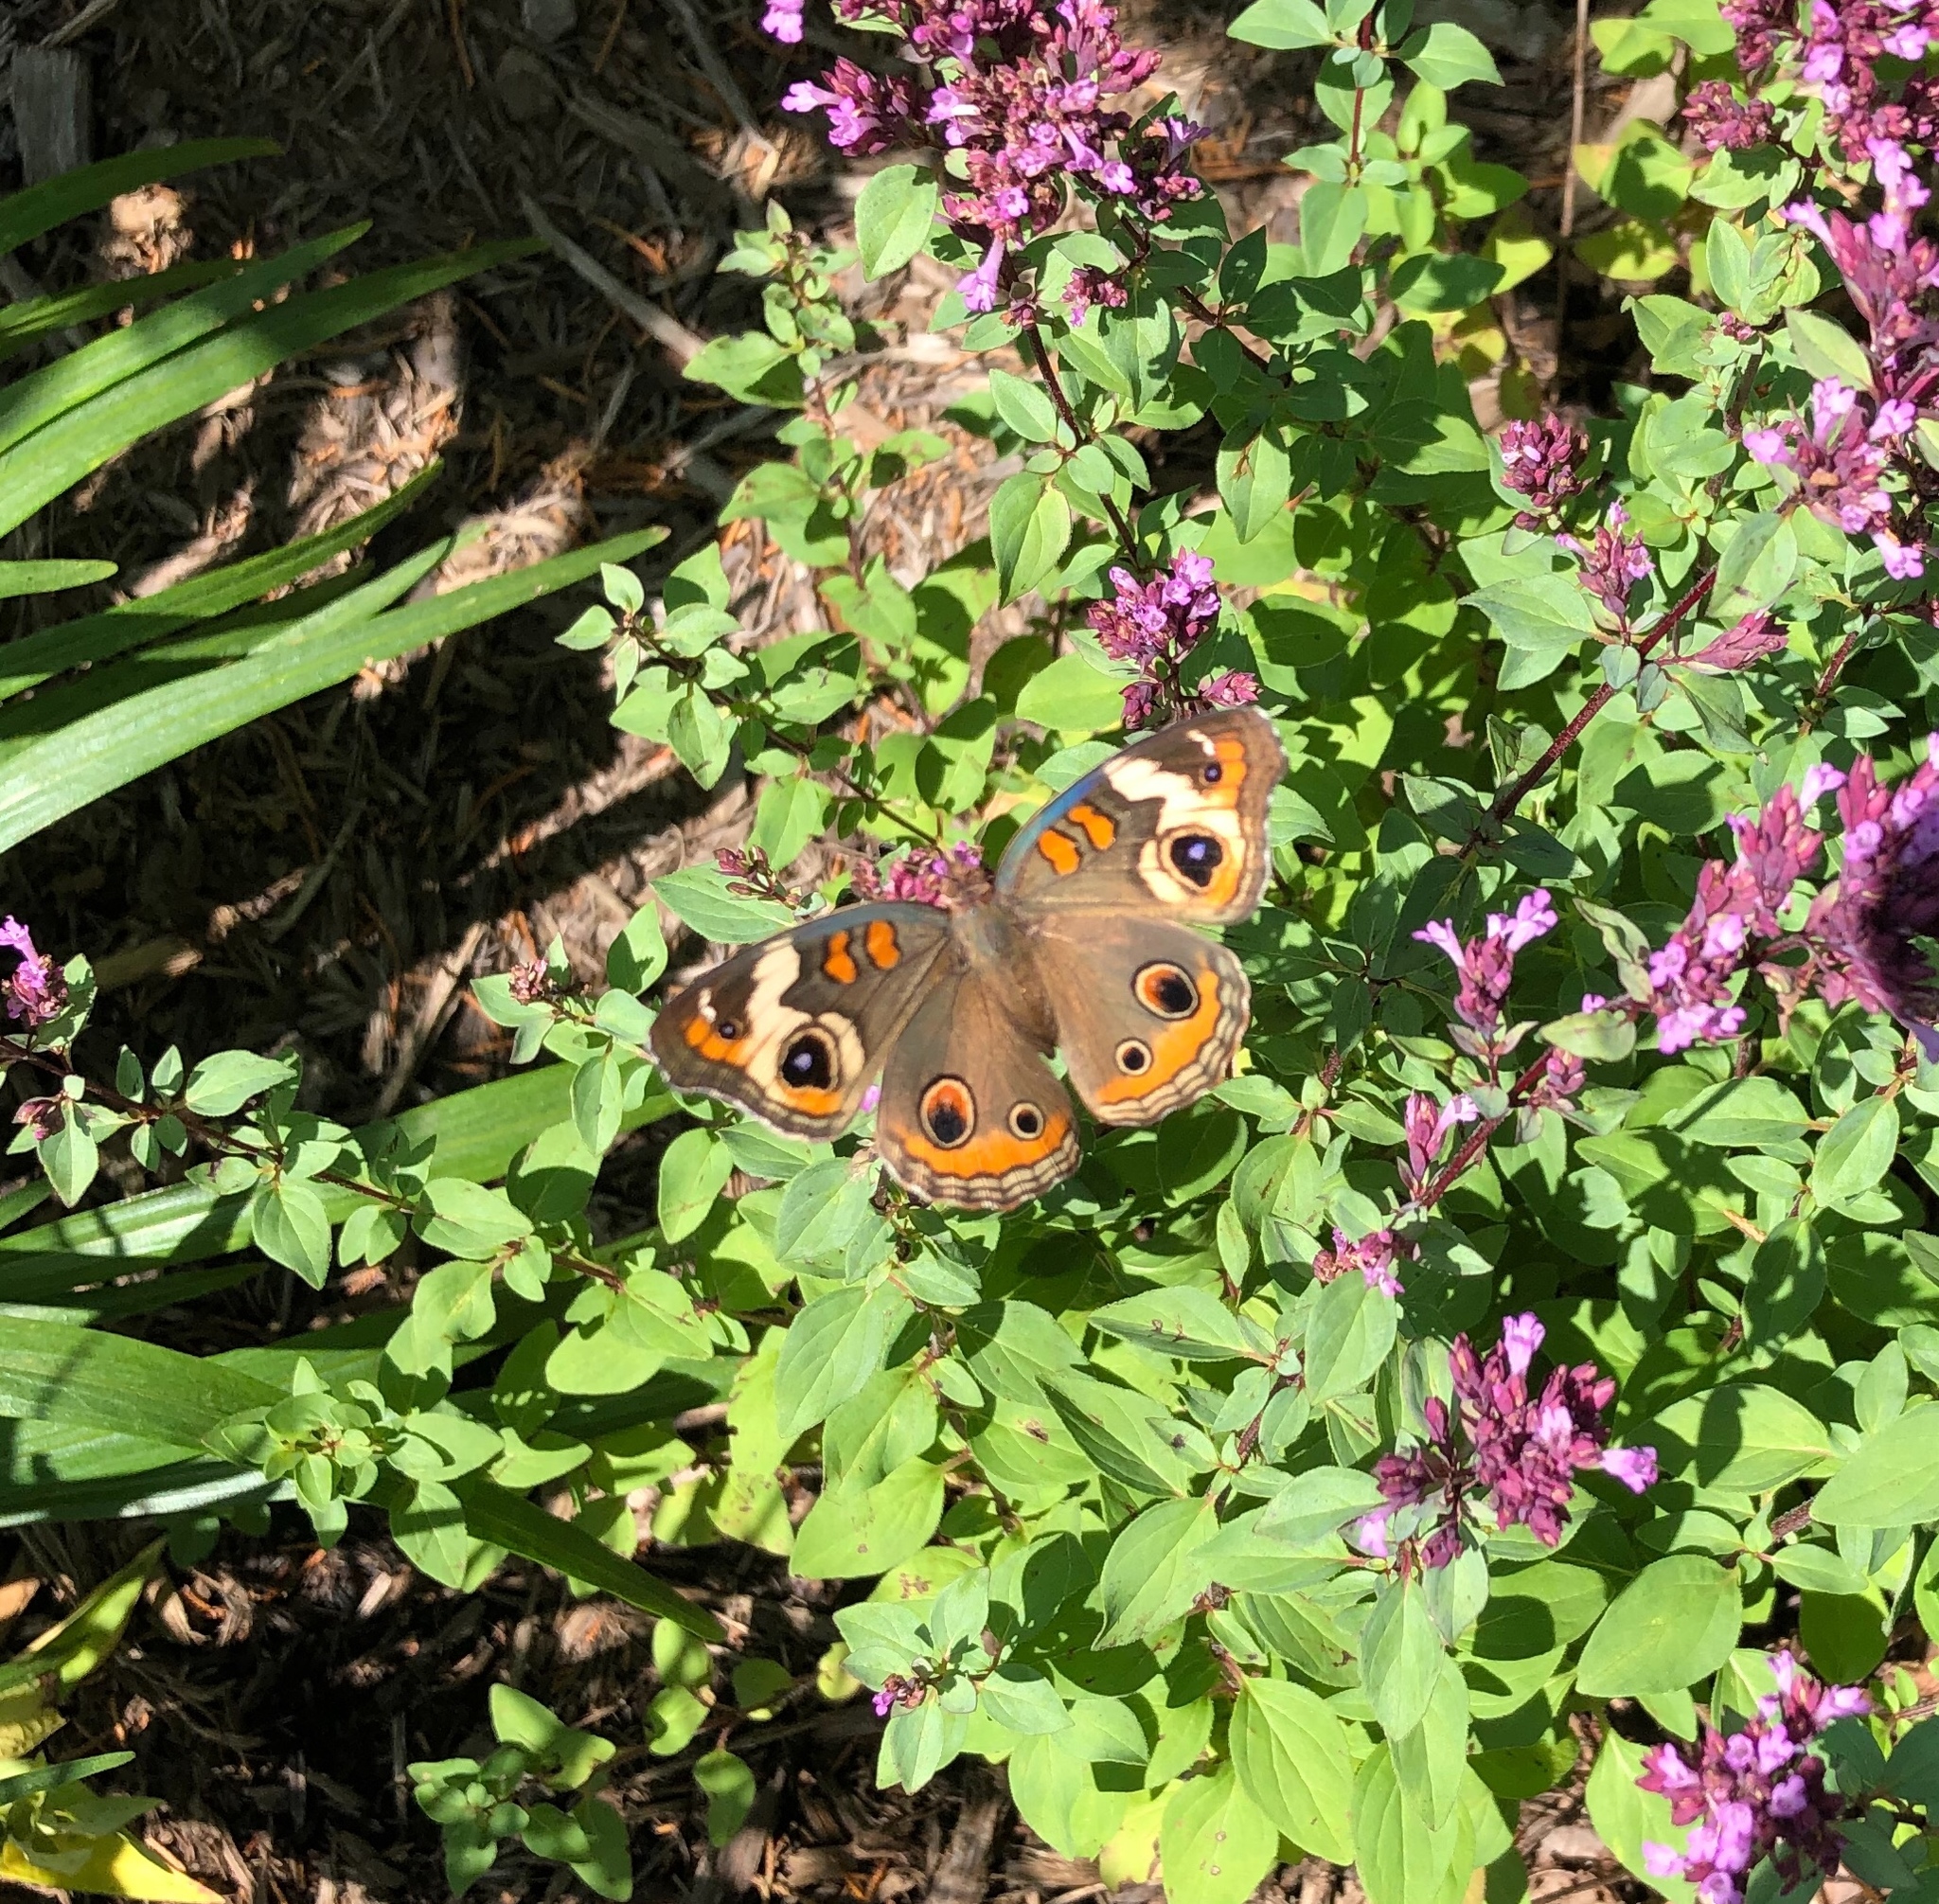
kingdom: Animalia
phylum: Arthropoda
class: Insecta
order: Lepidoptera
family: Nymphalidae
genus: Junonia
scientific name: Junonia coenia
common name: Common buckeye
